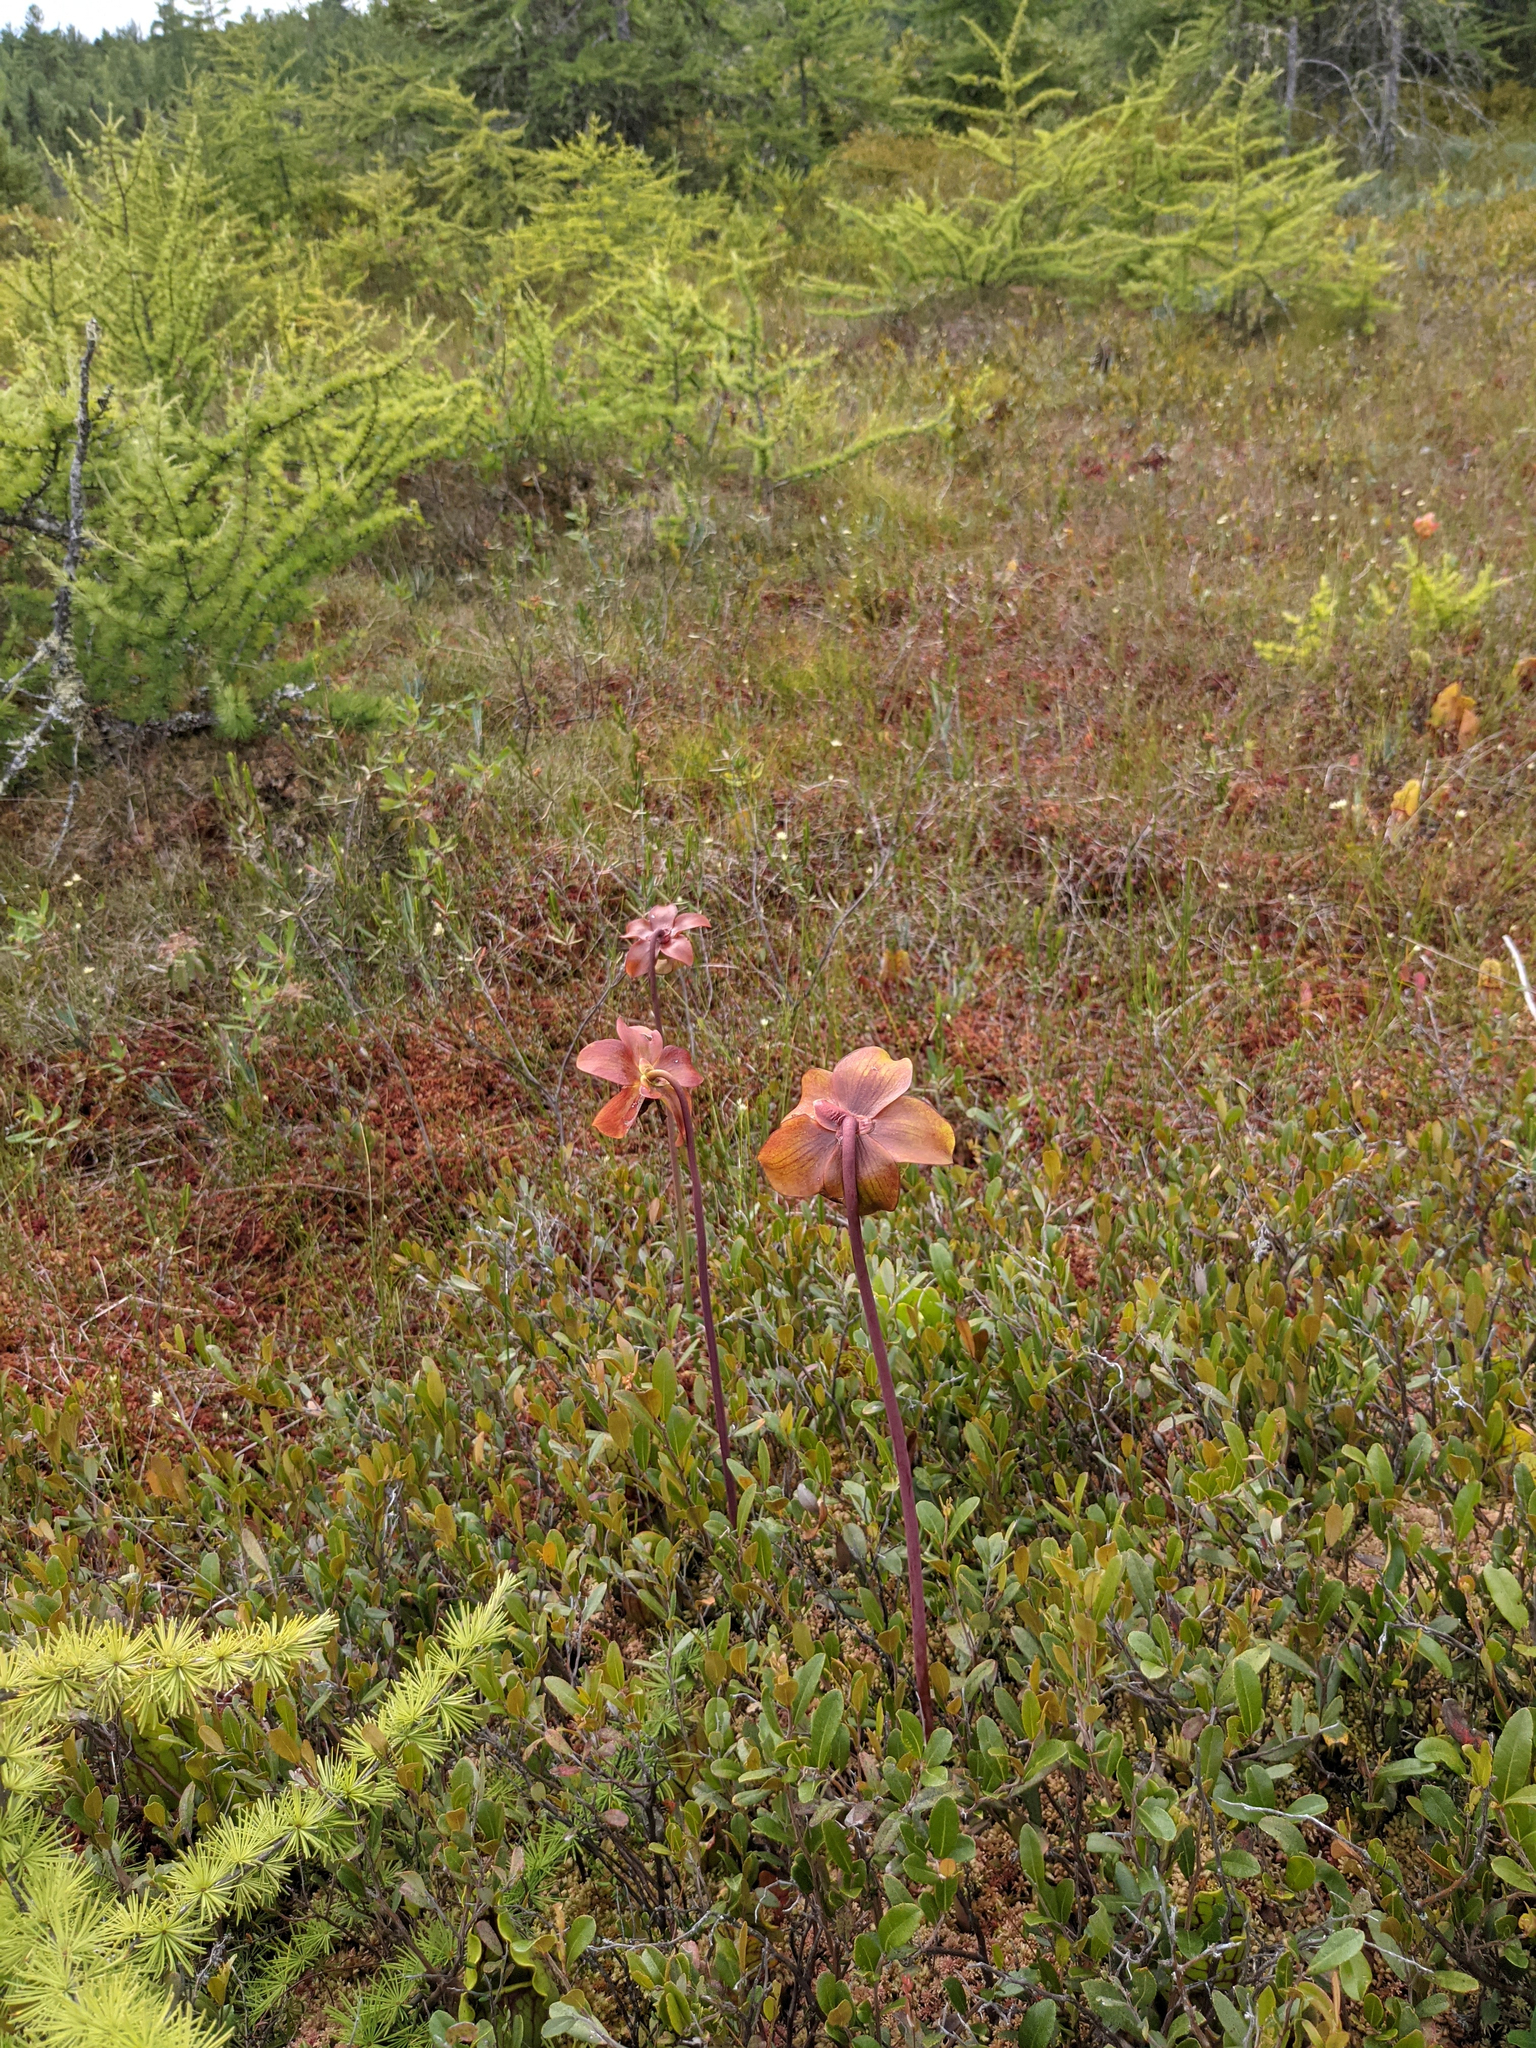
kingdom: Plantae
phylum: Tracheophyta
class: Magnoliopsida
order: Ericales
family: Sarraceniaceae
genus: Sarracenia
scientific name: Sarracenia purpurea
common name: Pitcherplant
